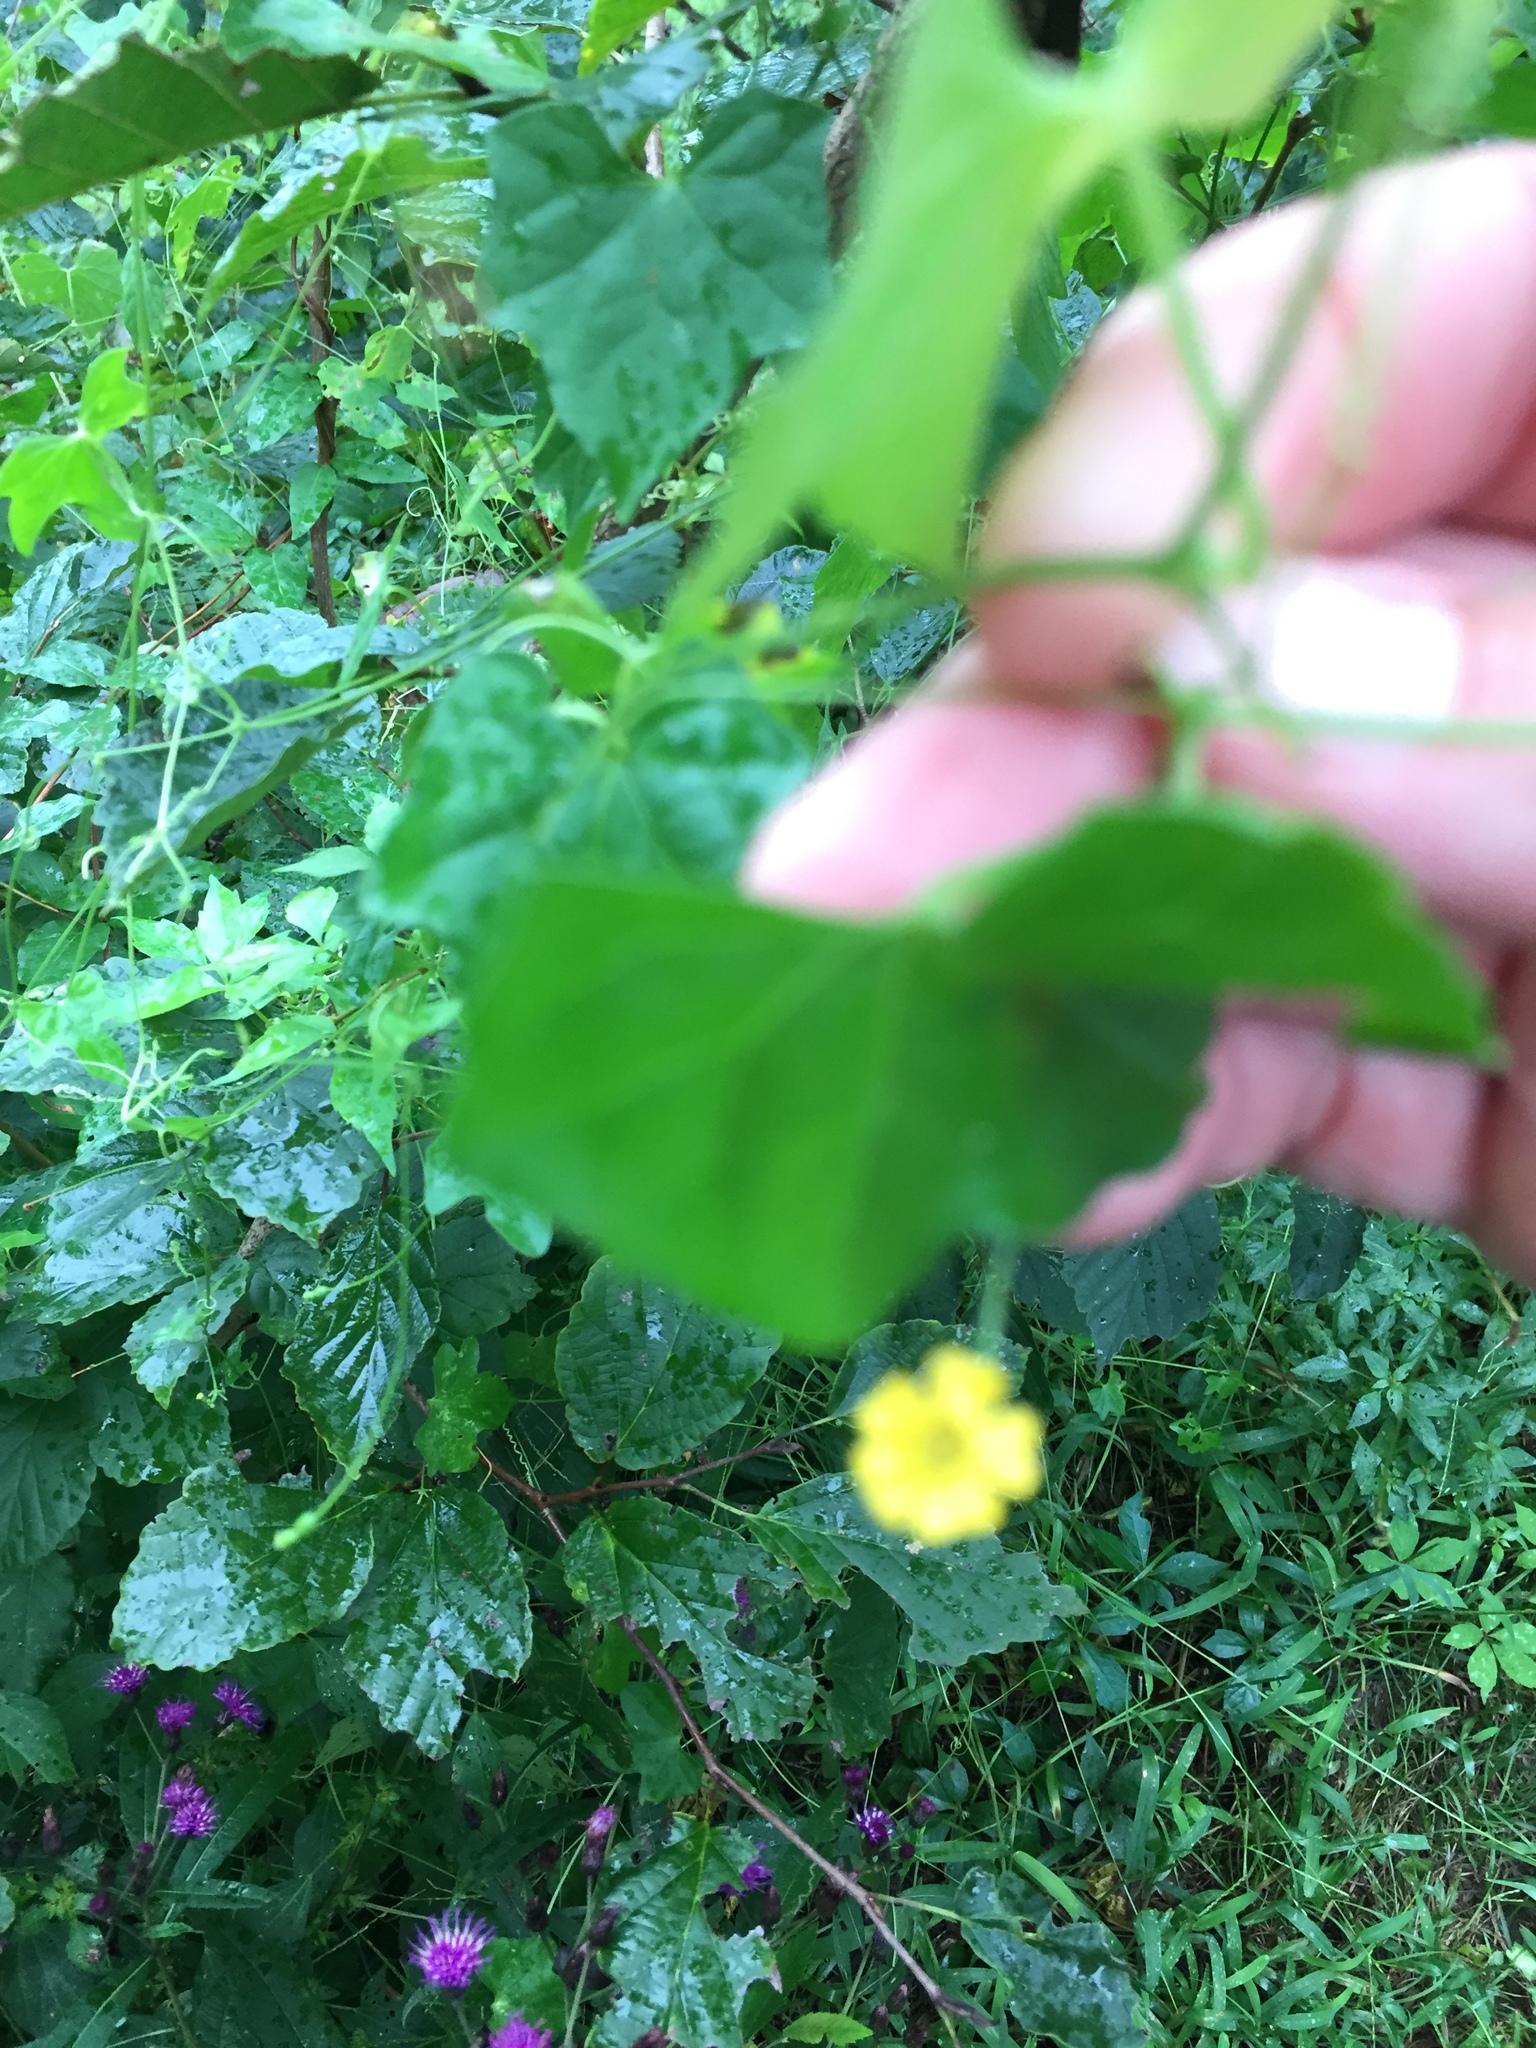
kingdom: Plantae
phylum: Tracheophyta
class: Magnoliopsida
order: Cucurbitales
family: Cucurbitaceae
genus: Melothria
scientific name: Melothria pendula
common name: Creeping-cucumber
